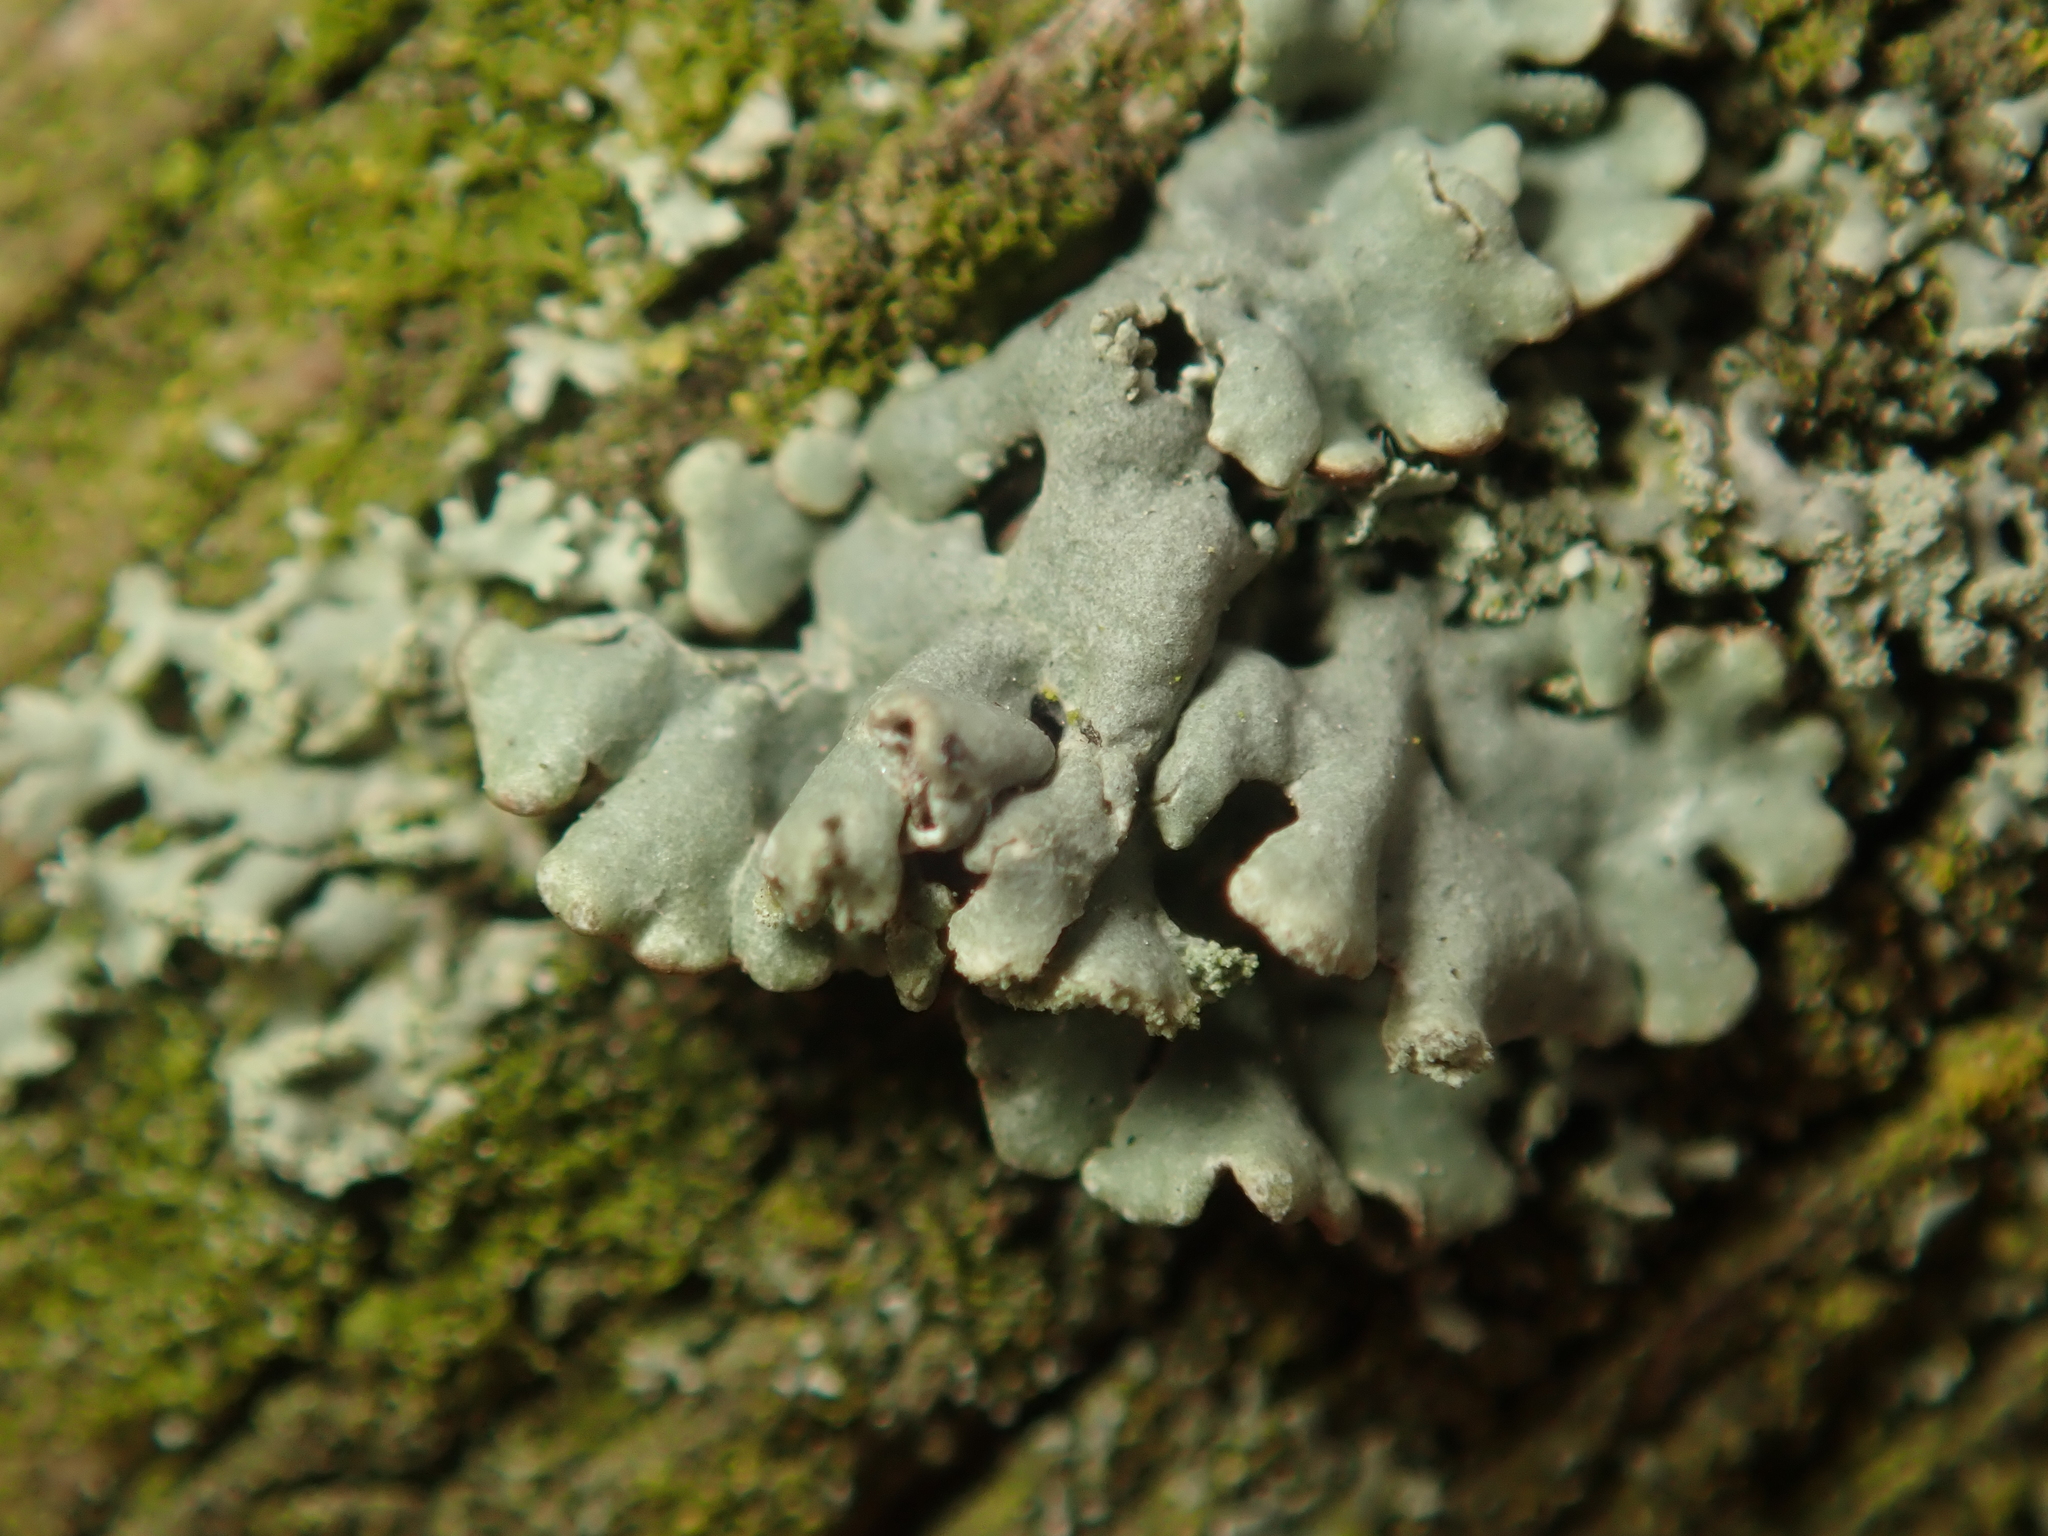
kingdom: Fungi
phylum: Ascomycota
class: Lecanoromycetes
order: Lecanorales
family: Parmeliaceae
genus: Hypogymnia
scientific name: Hypogymnia physodes
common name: Dark crottle
